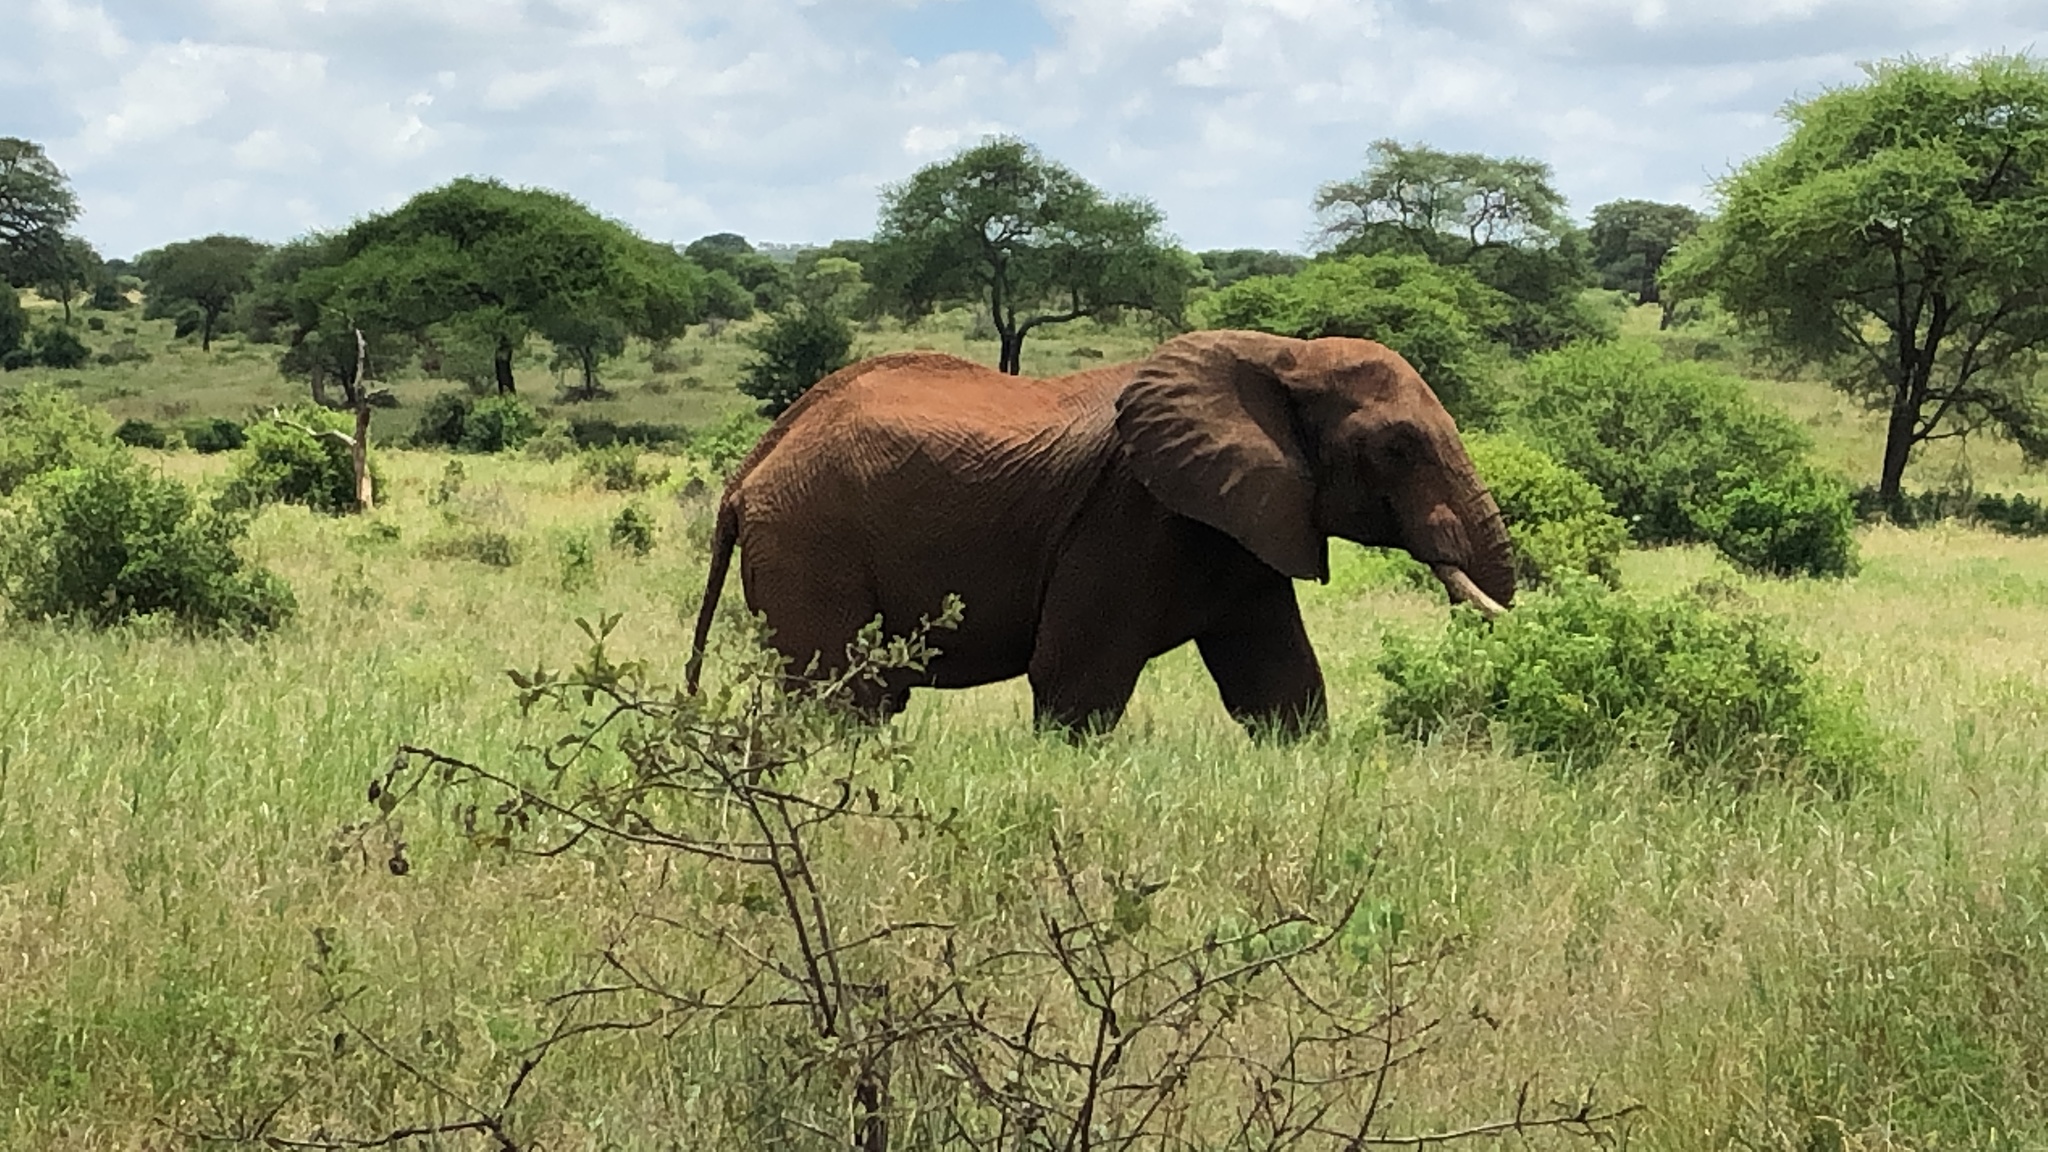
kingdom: Animalia
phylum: Chordata
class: Mammalia
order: Proboscidea
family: Elephantidae
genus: Loxodonta
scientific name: Loxodonta africana
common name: African elephant
